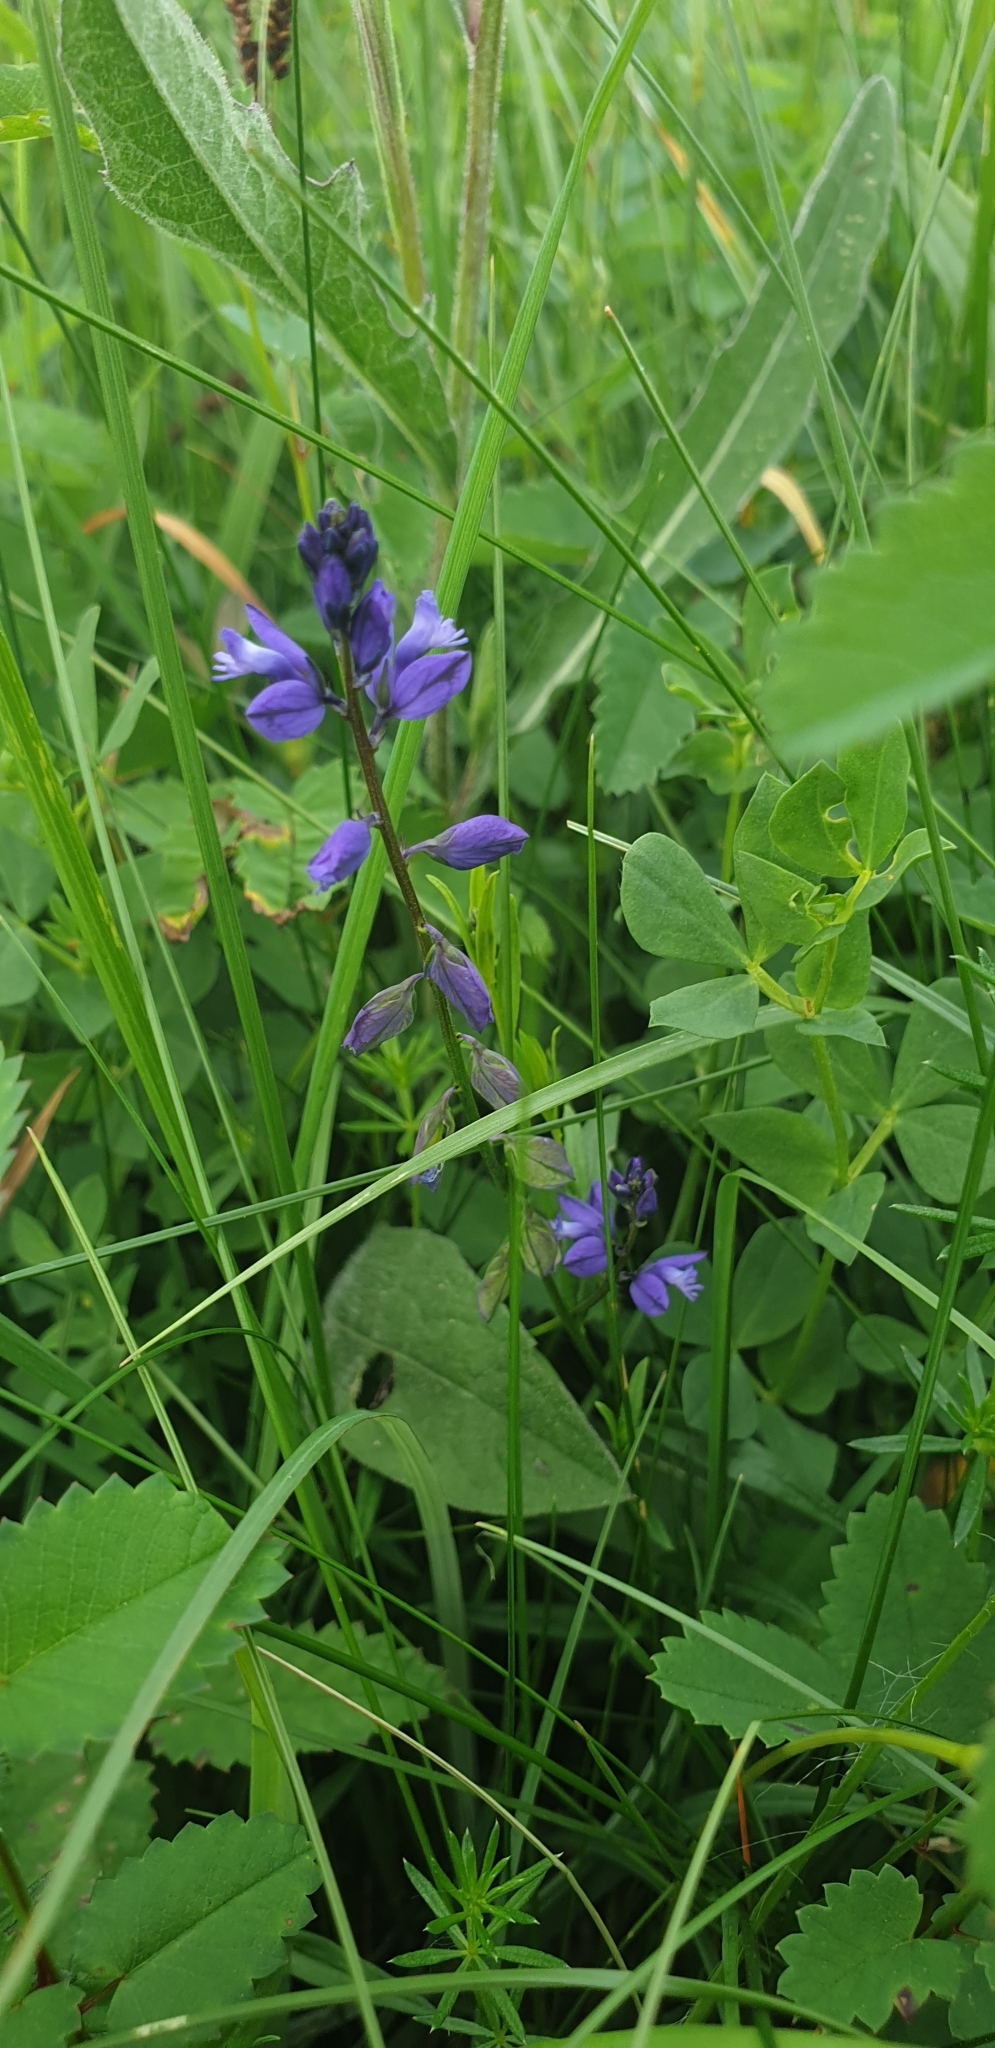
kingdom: Plantae
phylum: Tracheophyta
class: Magnoliopsida
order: Fabales
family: Polygalaceae
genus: Polygala
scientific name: Polygala vulgaris
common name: Common milkwort
